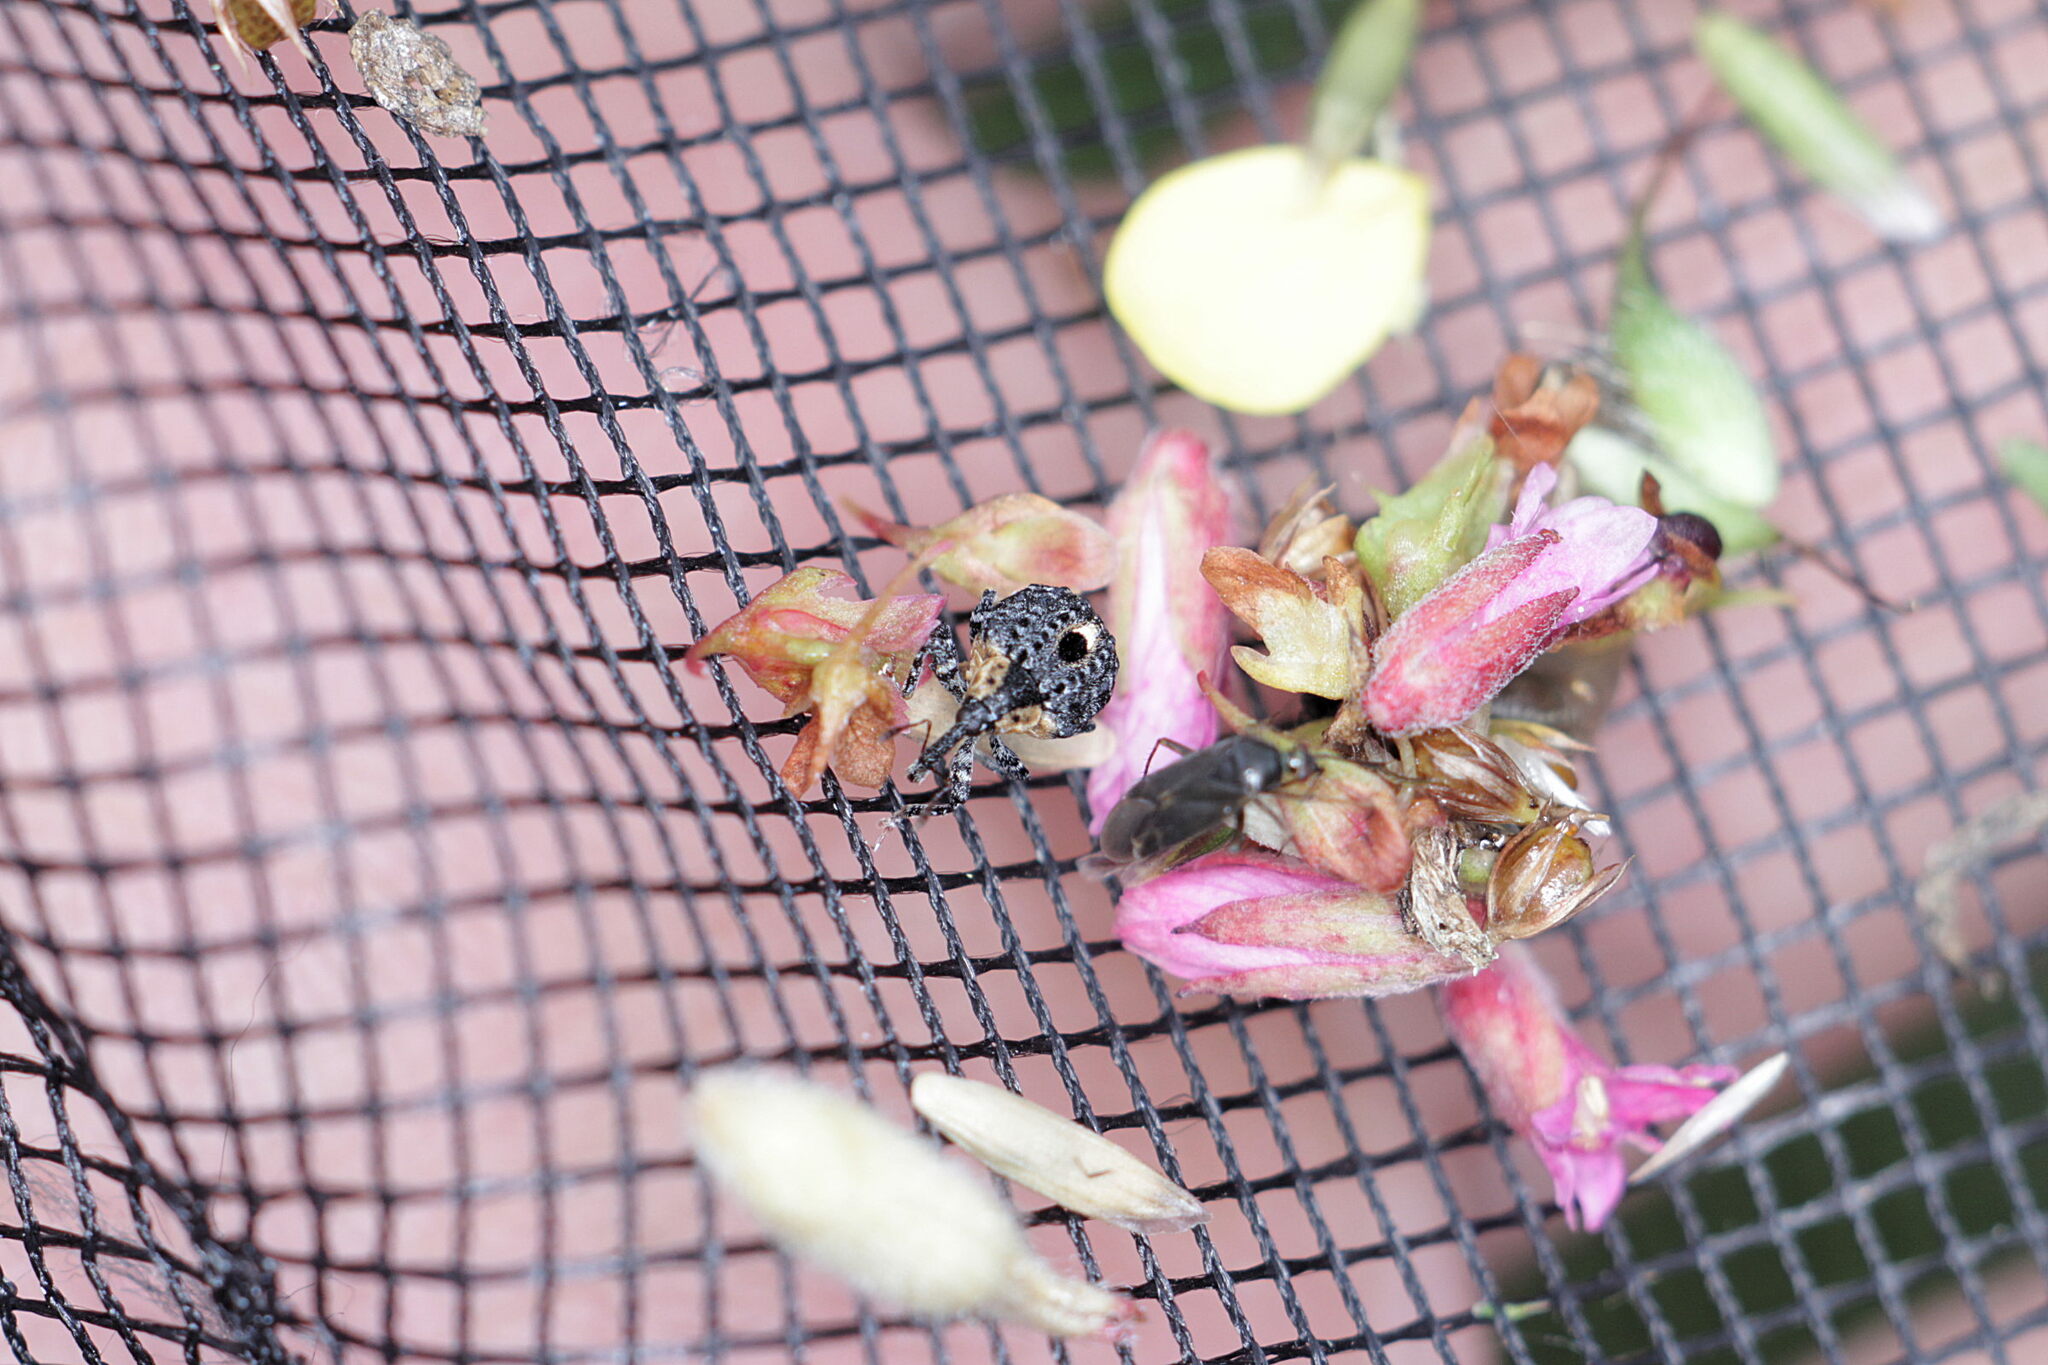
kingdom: Animalia
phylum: Arthropoda
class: Insecta
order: Coleoptera
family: Curculionidae
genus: Cionus
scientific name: Cionus tuberculosus
